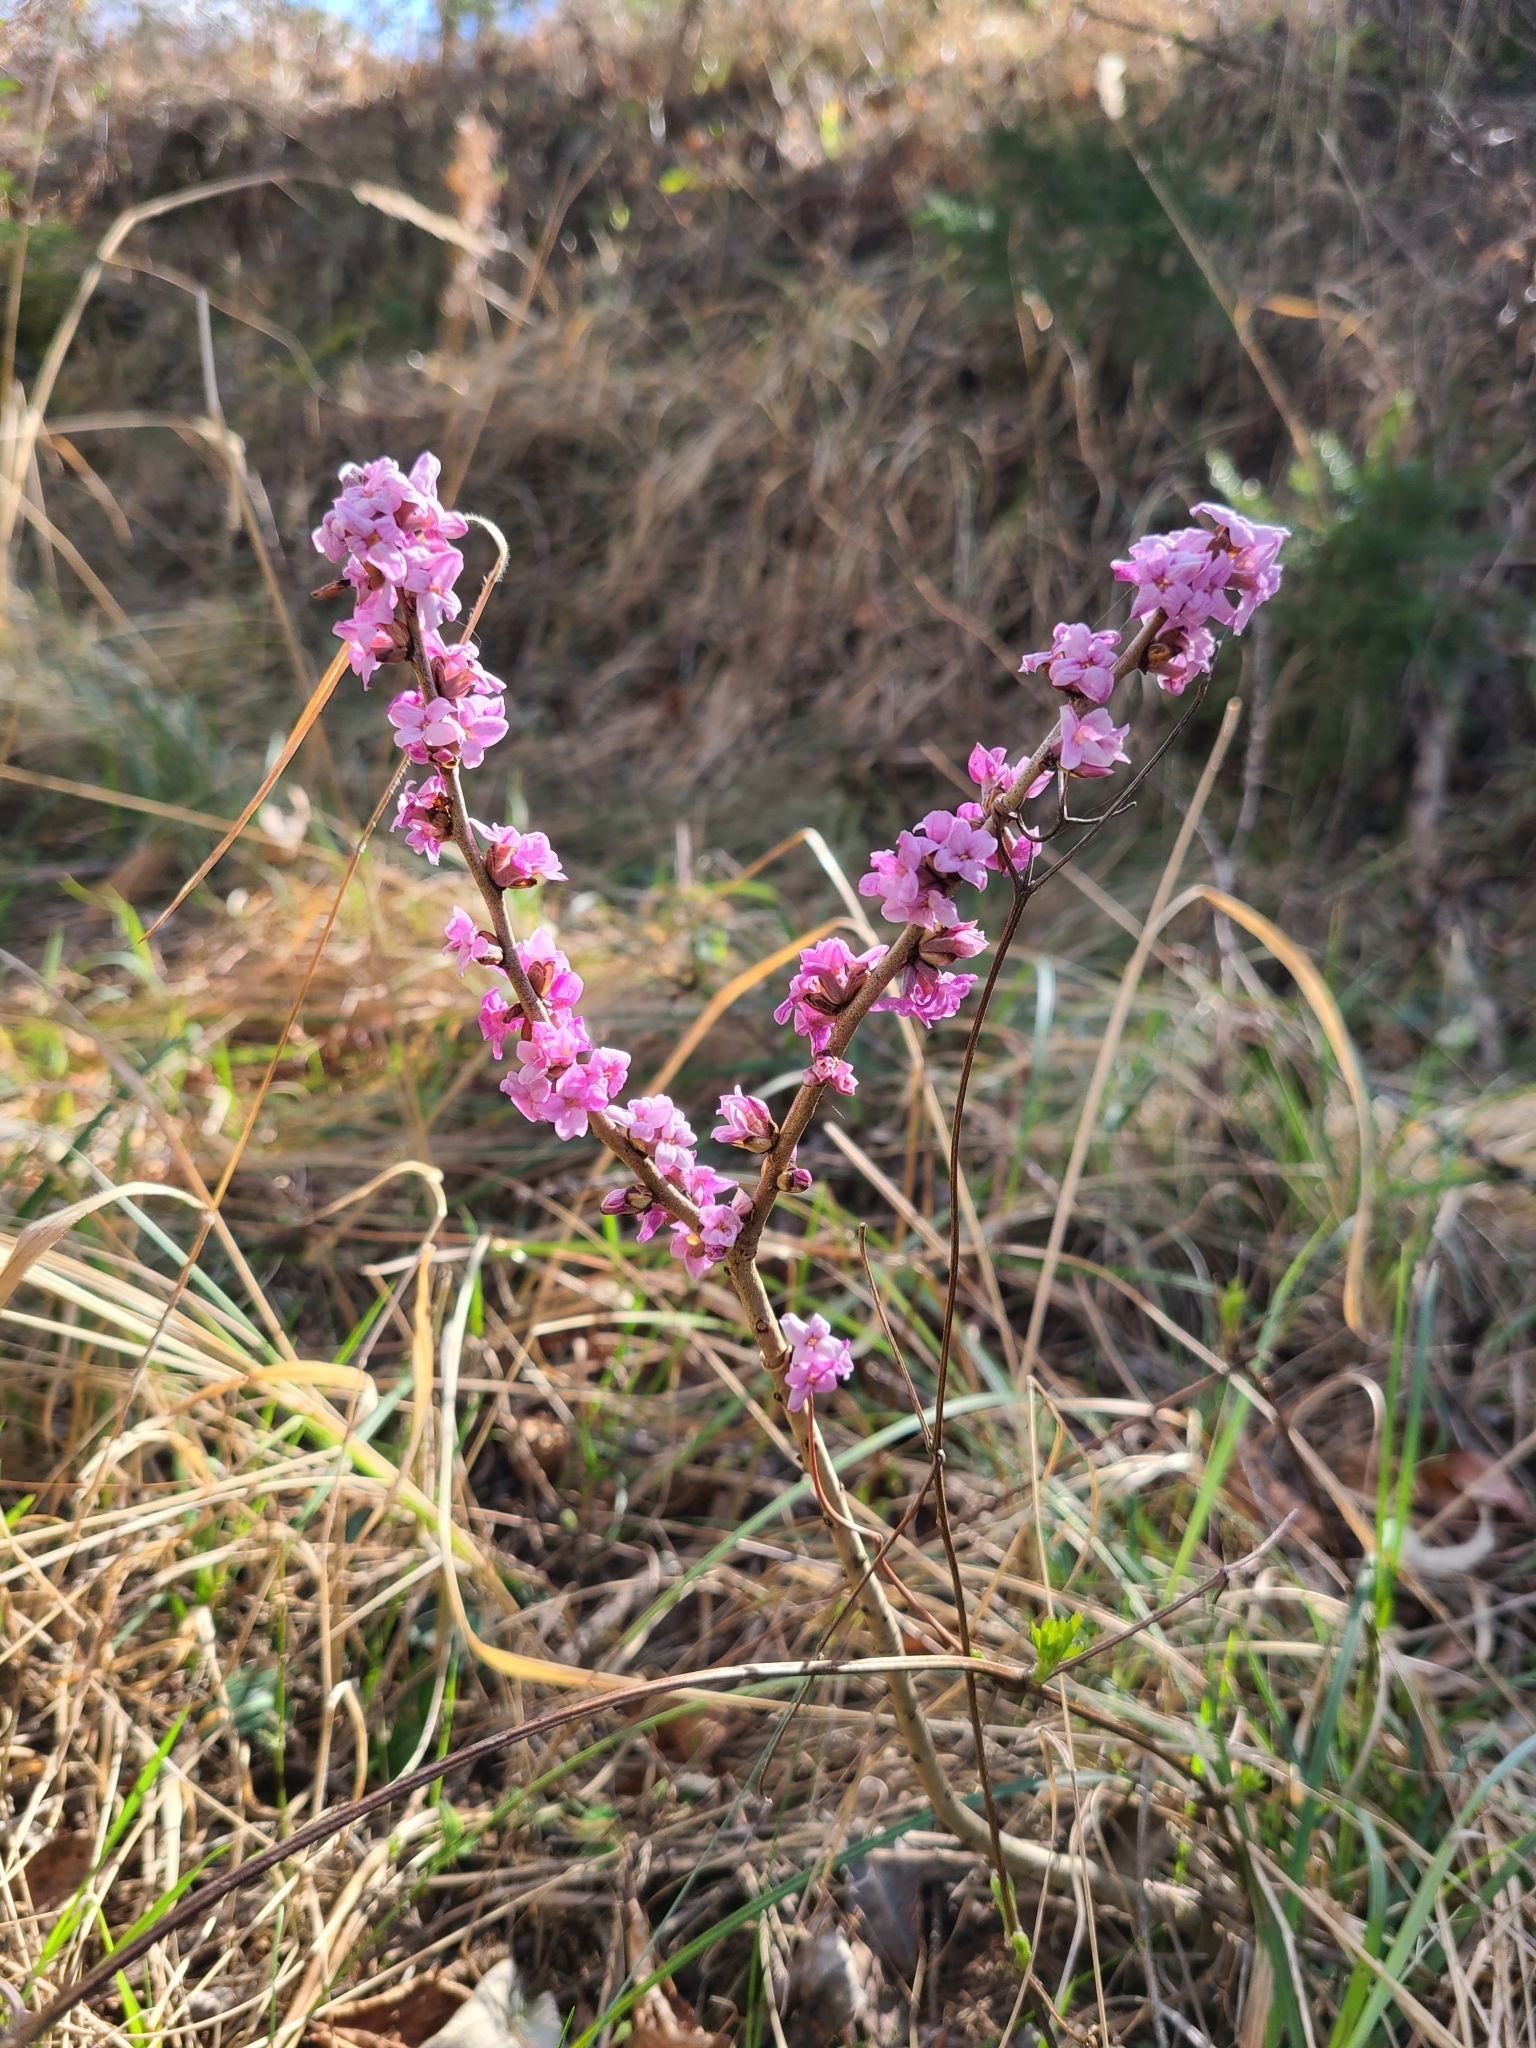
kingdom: Plantae
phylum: Tracheophyta
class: Magnoliopsida
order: Malvales
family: Thymelaeaceae
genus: Daphne
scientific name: Daphne mezereum
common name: Mezereon
